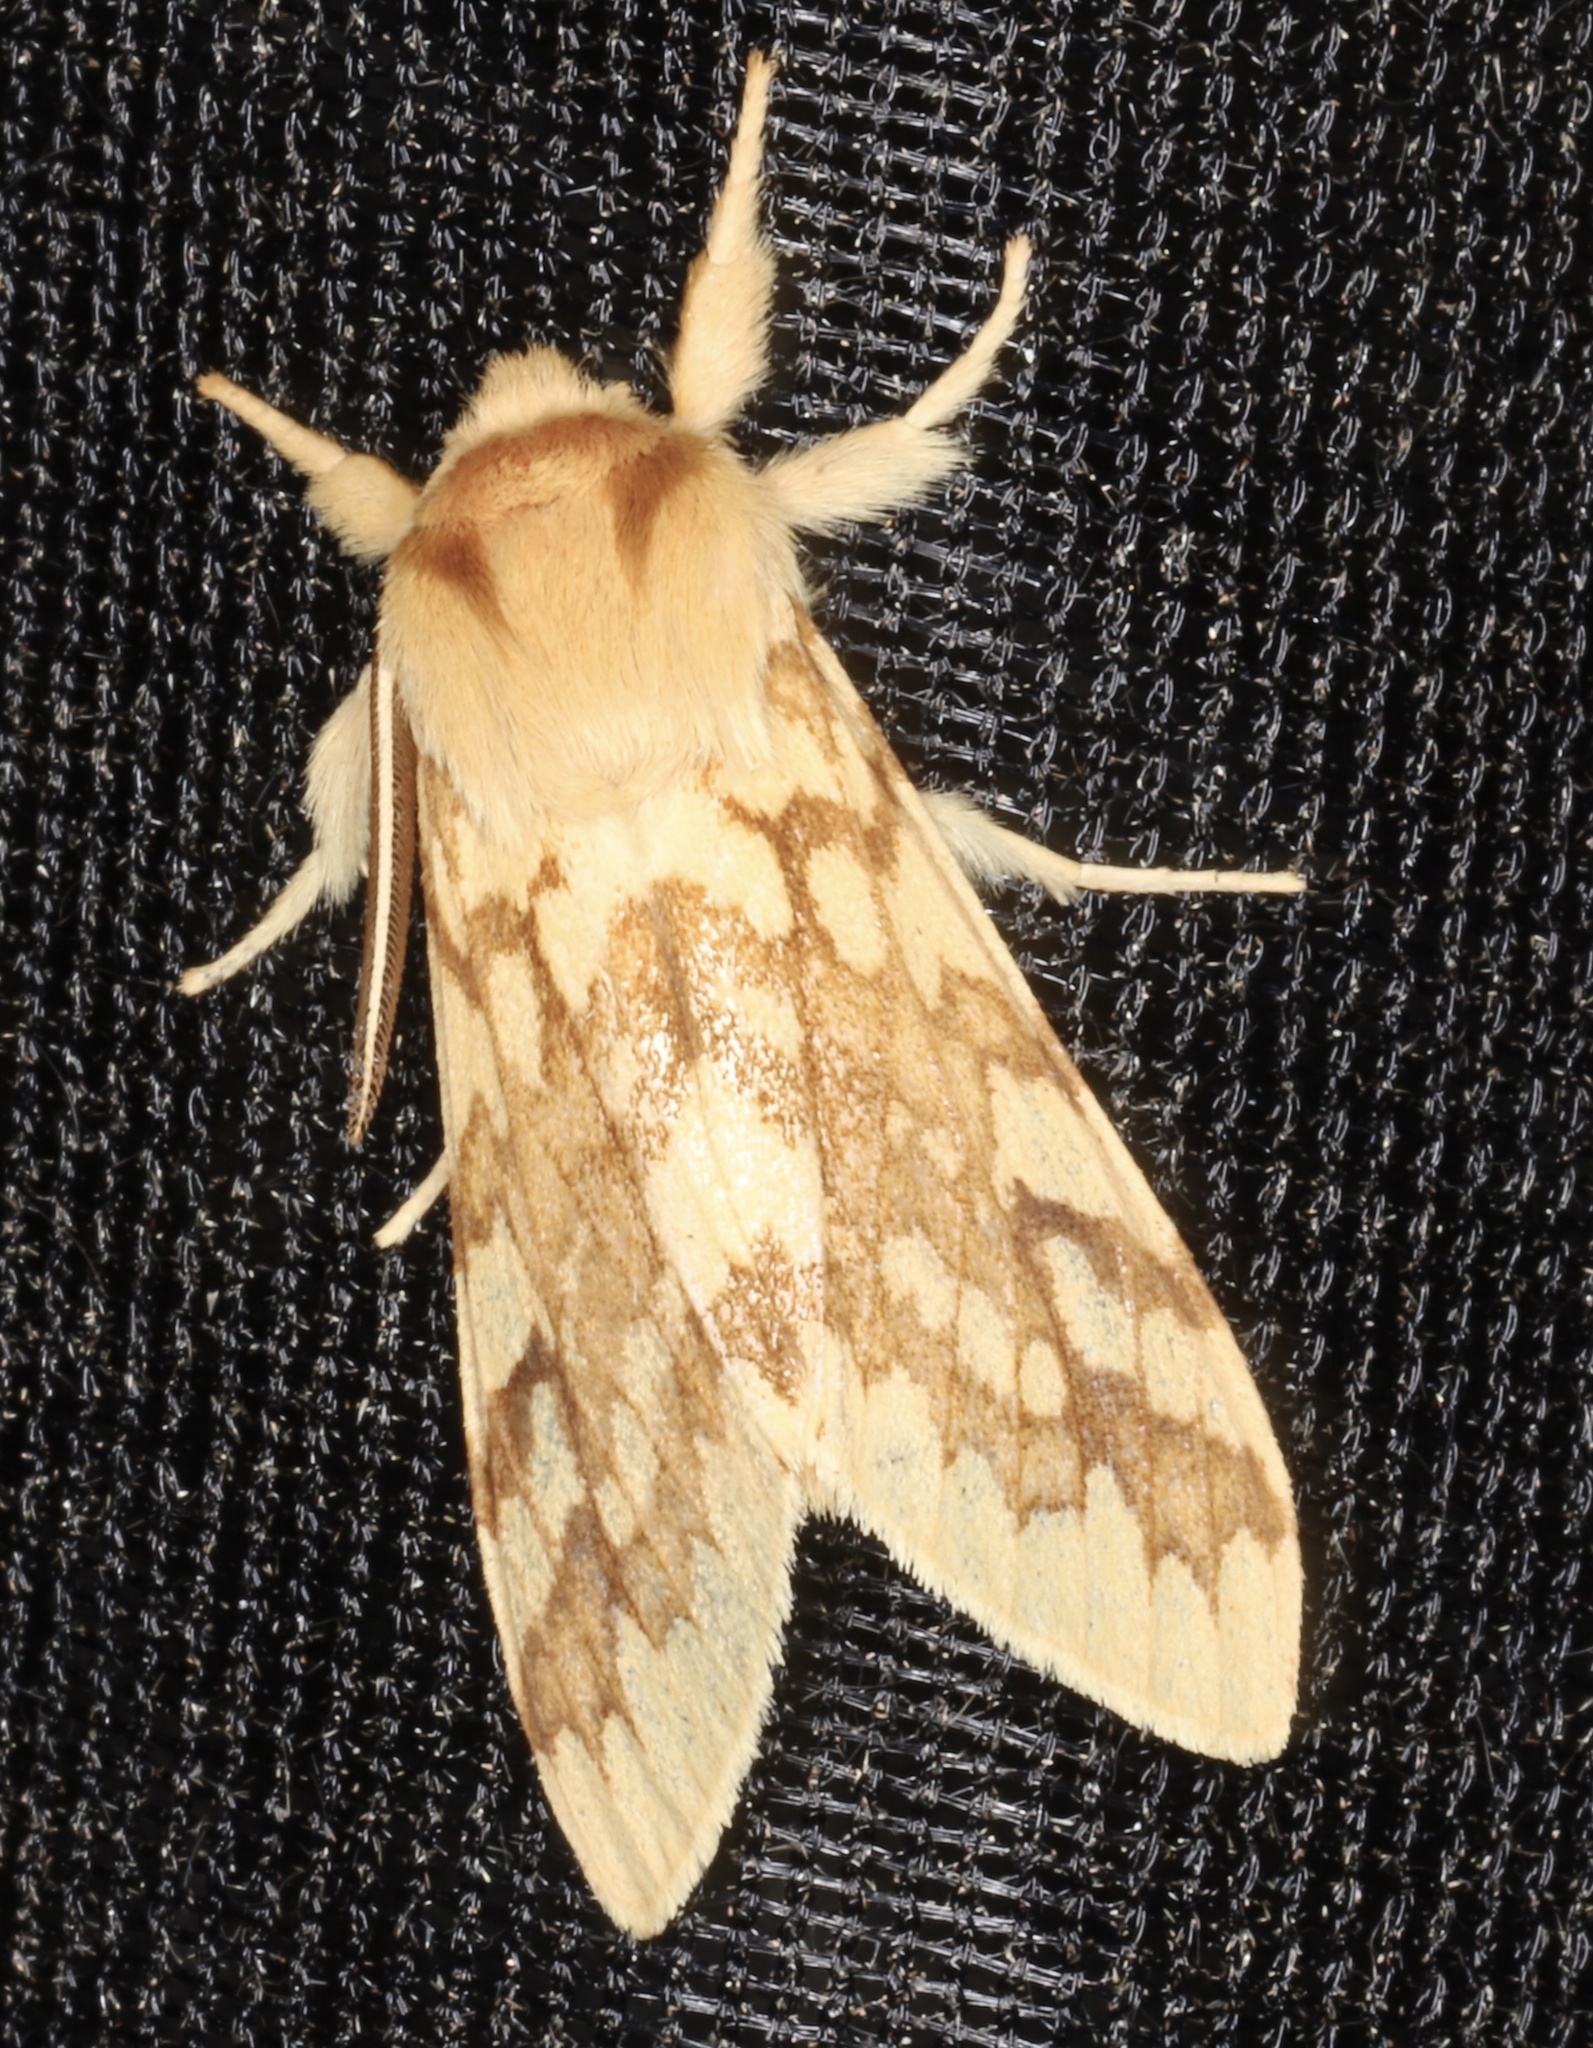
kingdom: Animalia
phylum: Arthropoda
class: Insecta
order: Lepidoptera
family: Erebidae
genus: Lophocampa
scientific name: Lophocampa maculata
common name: Spotted tussock moth
